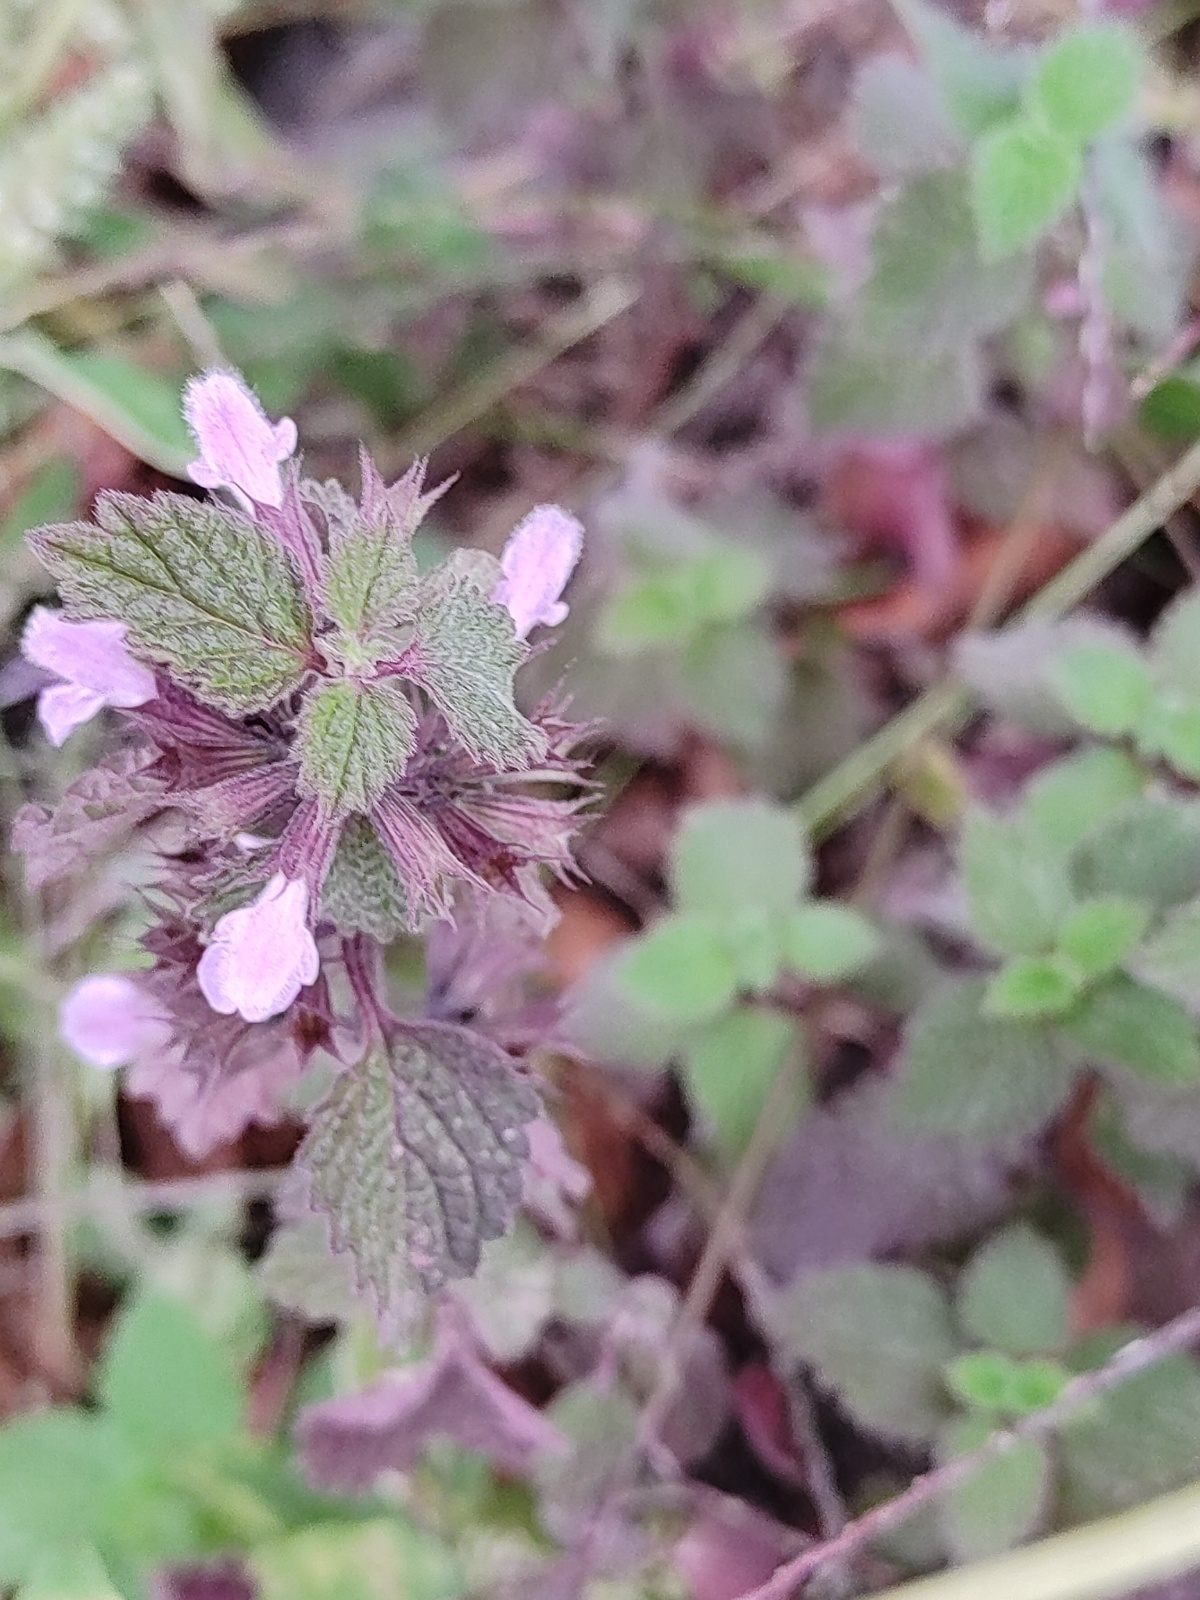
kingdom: Plantae
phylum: Tracheophyta
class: Magnoliopsida
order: Lamiales
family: Lamiaceae
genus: Ballota
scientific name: Ballota nigra
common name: Black horehound
